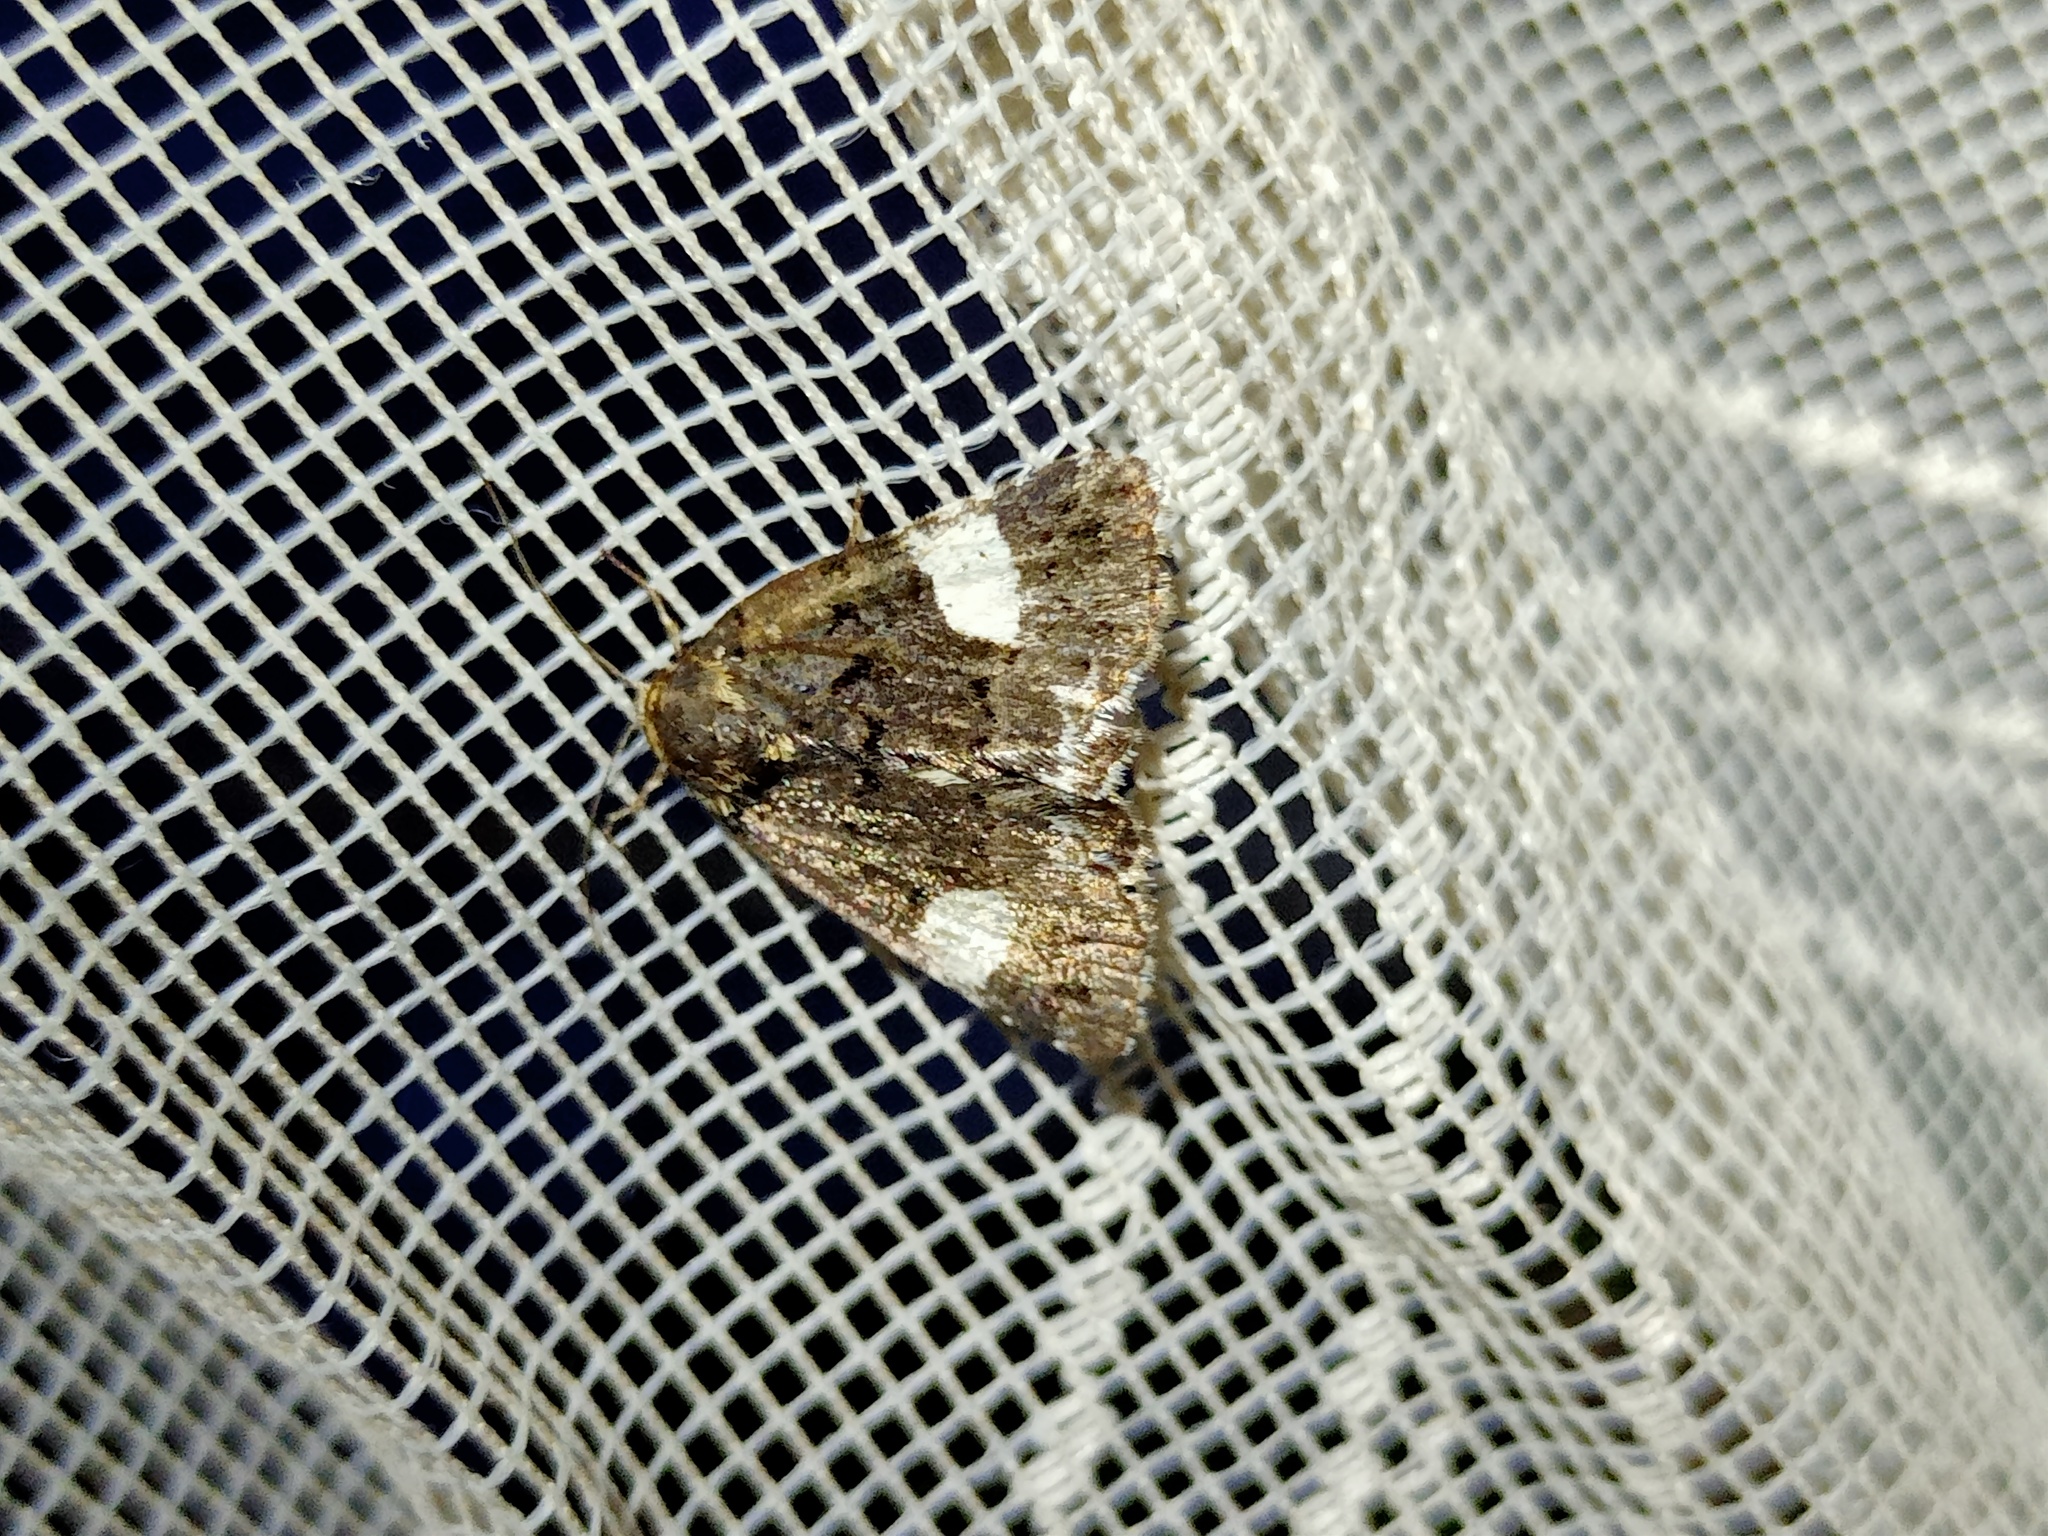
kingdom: Animalia
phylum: Arthropoda
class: Insecta
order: Lepidoptera
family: Erebidae
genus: Tyta
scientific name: Tyta luctuosa
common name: Four-spotted
